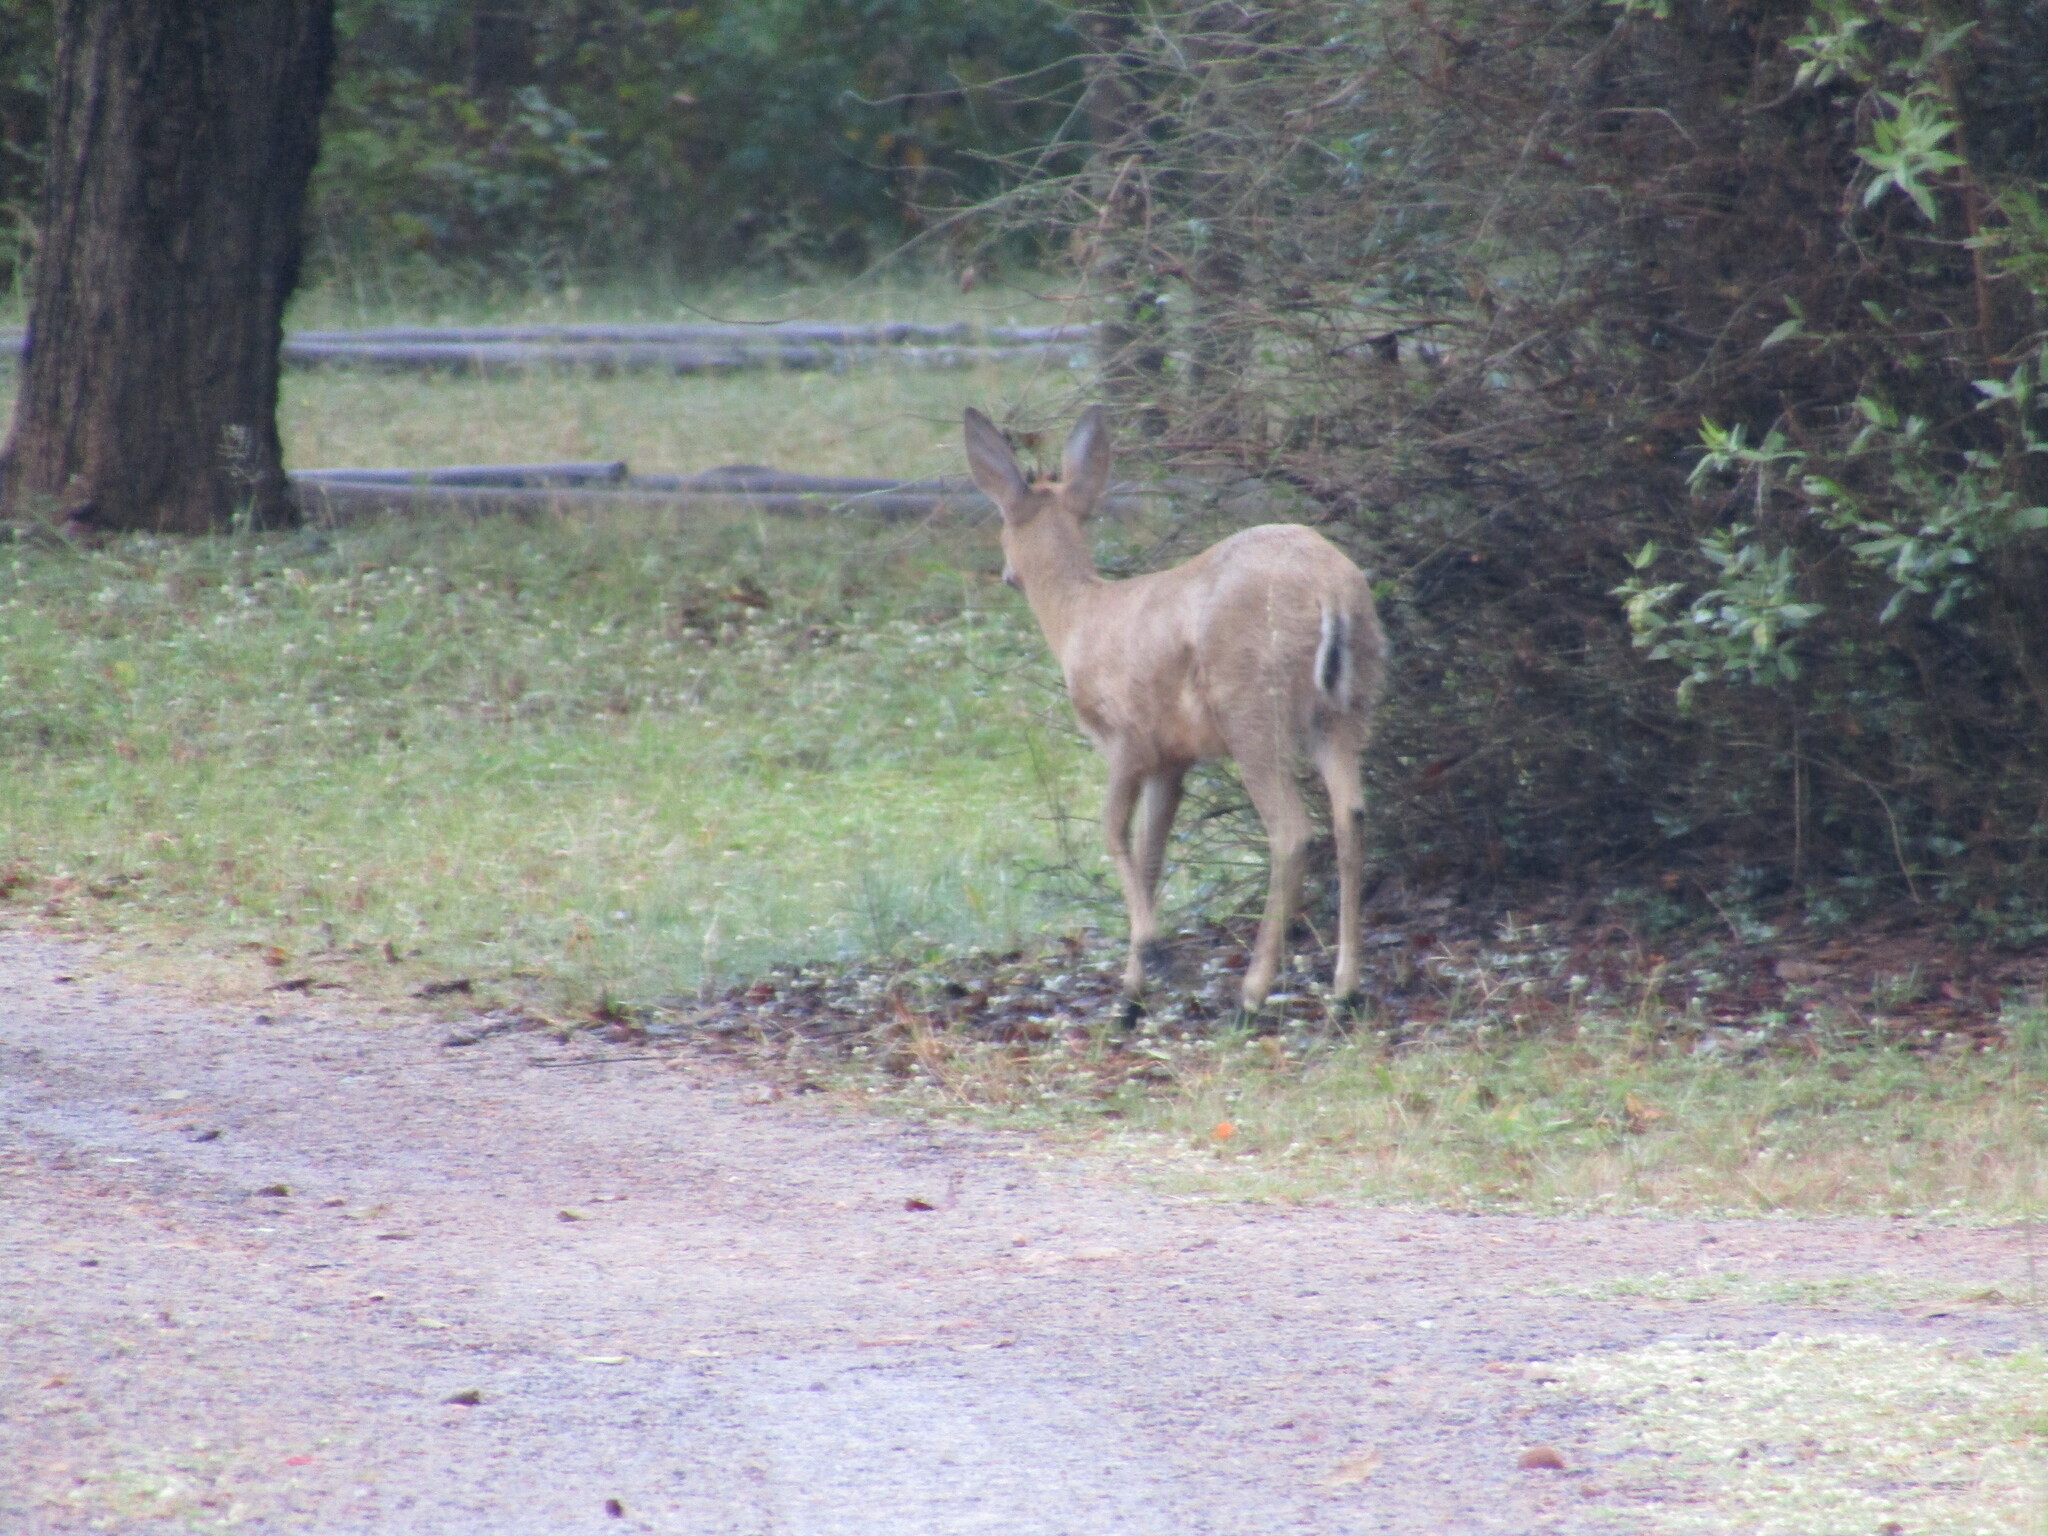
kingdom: Animalia
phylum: Chordata
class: Mammalia
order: Artiodactyla
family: Bovidae
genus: Sylvicapra
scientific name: Sylvicapra grimmia
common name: Bush duiker
